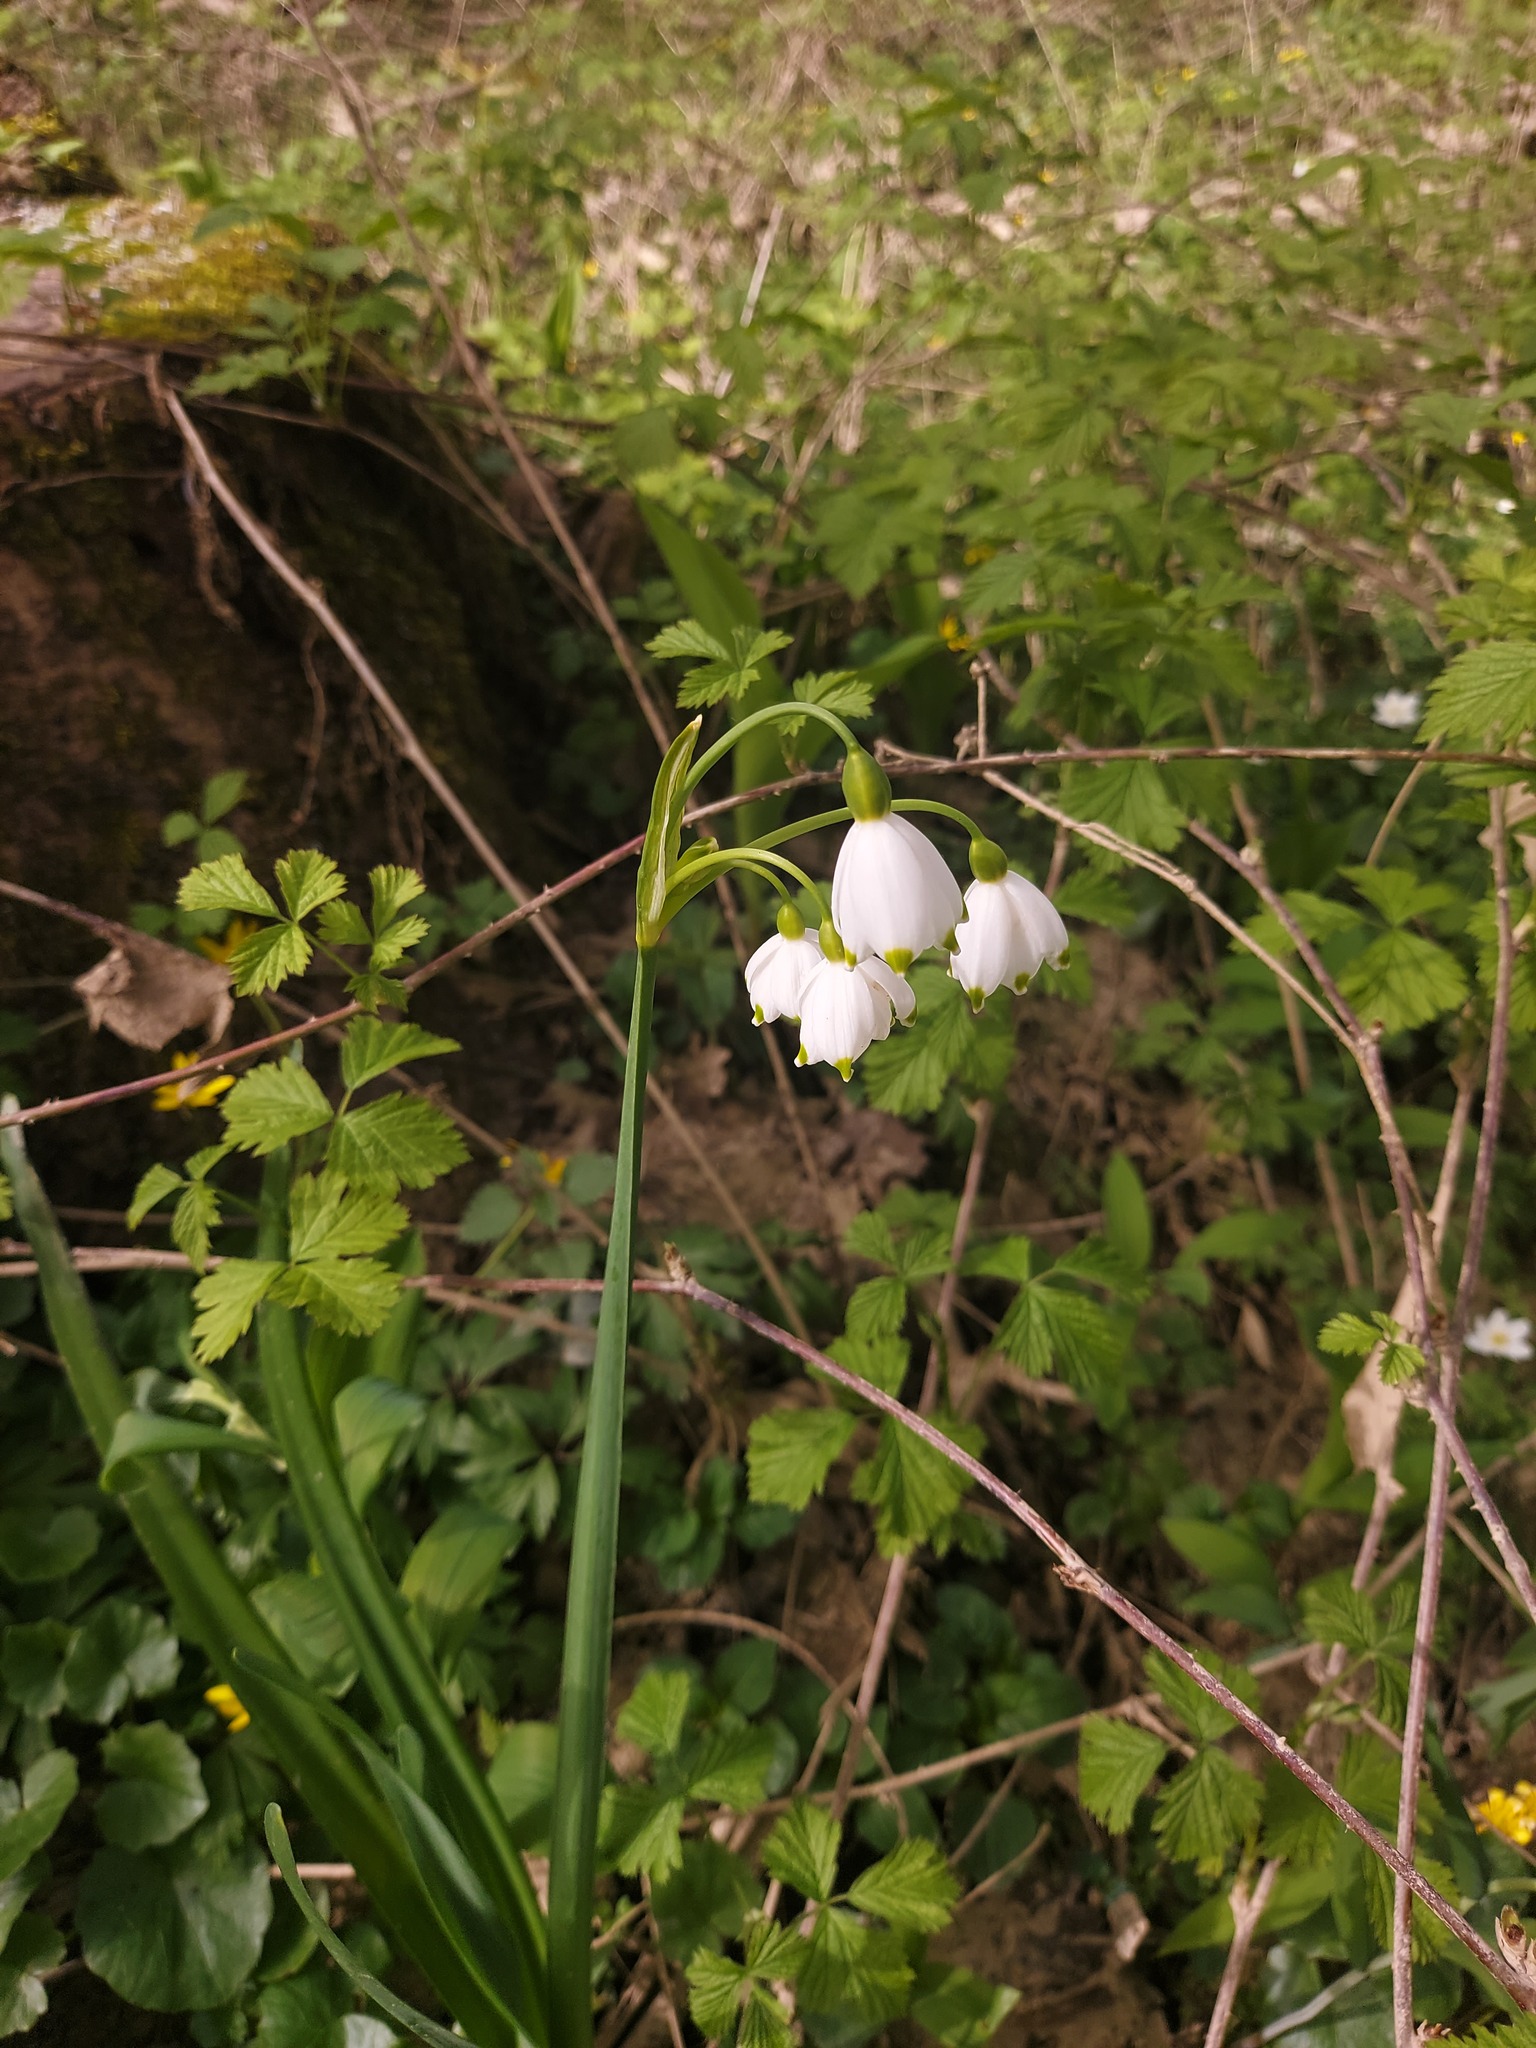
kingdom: Plantae
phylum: Tracheophyta
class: Liliopsida
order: Asparagales
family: Amaryllidaceae
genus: Leucojum
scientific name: Leucojum aestivum
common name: Summer snowflake
